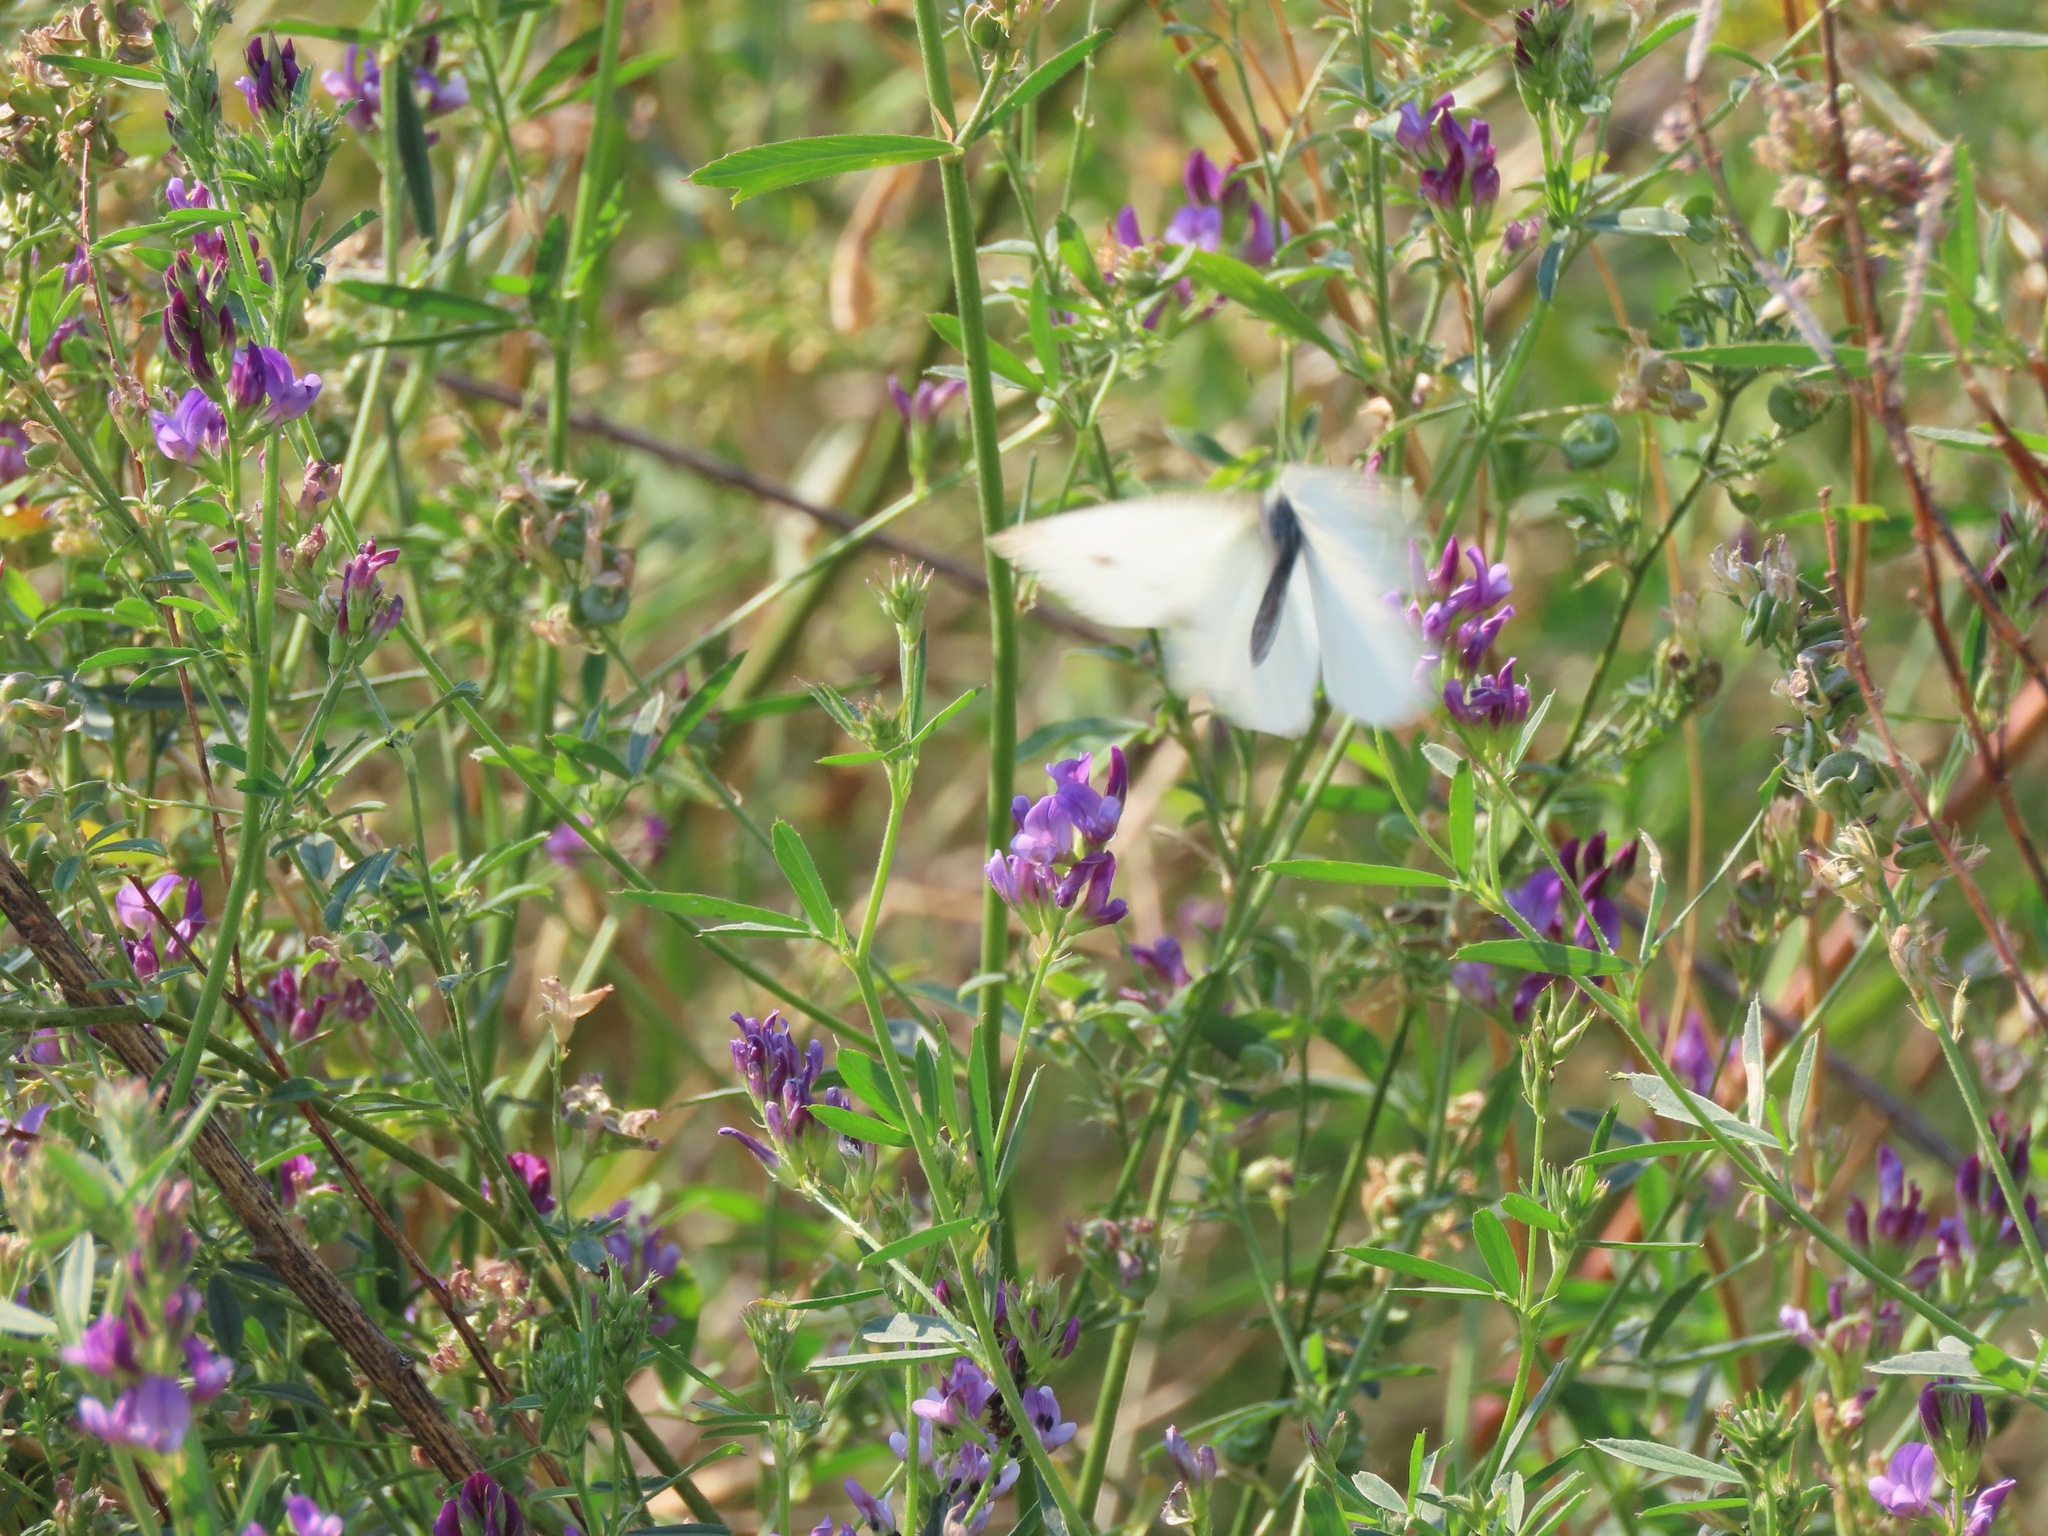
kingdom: Animalia
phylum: Arthropoda
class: Insecta
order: Lepidoptera
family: Pieridae
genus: Pieris
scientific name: Pieris rapae
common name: Small white
